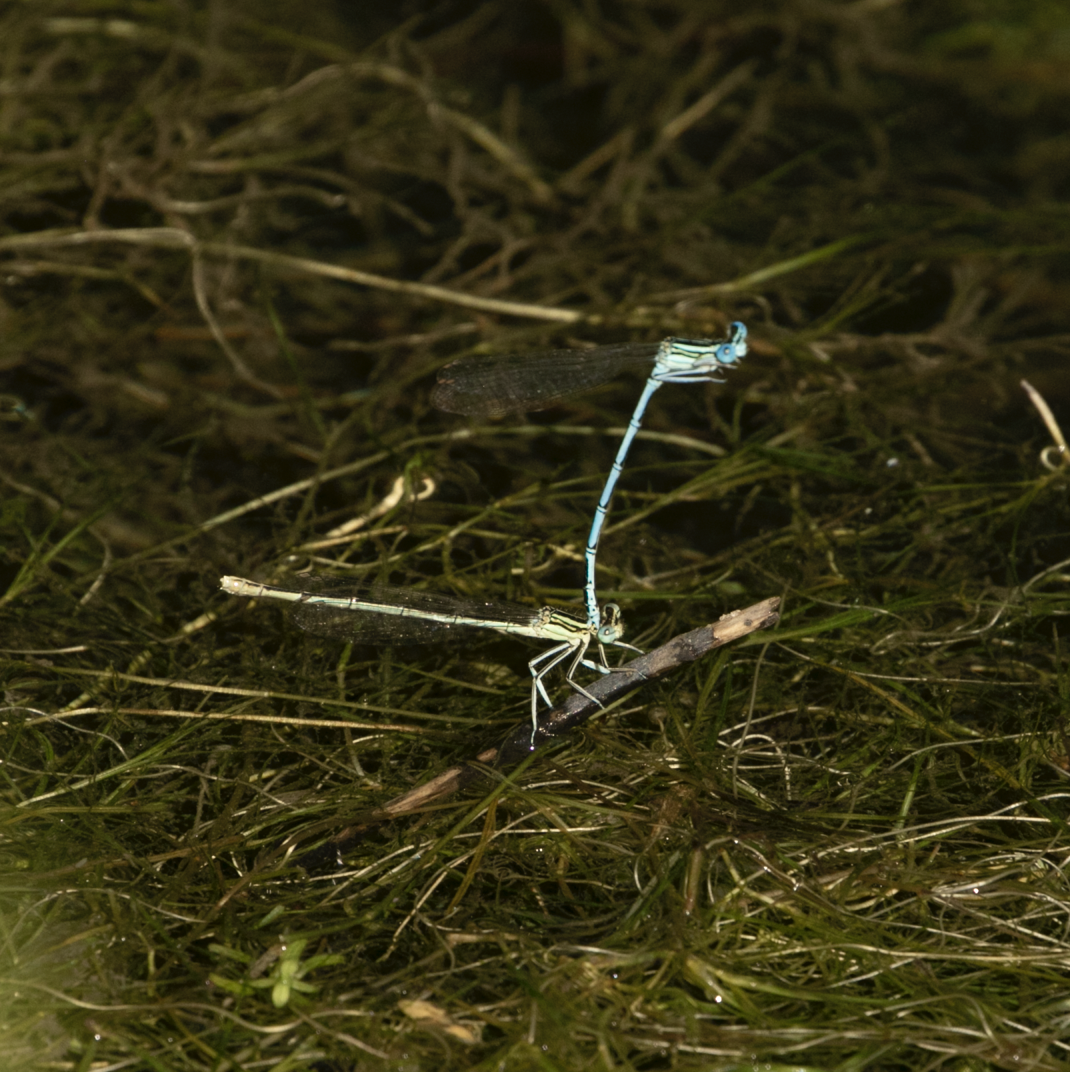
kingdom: Animalia
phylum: Arthropoda
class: Insecta
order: Odonata
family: Platycnemididae
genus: Platycnemis
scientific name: Platycnemis pennipes
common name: White-legged damselfly
